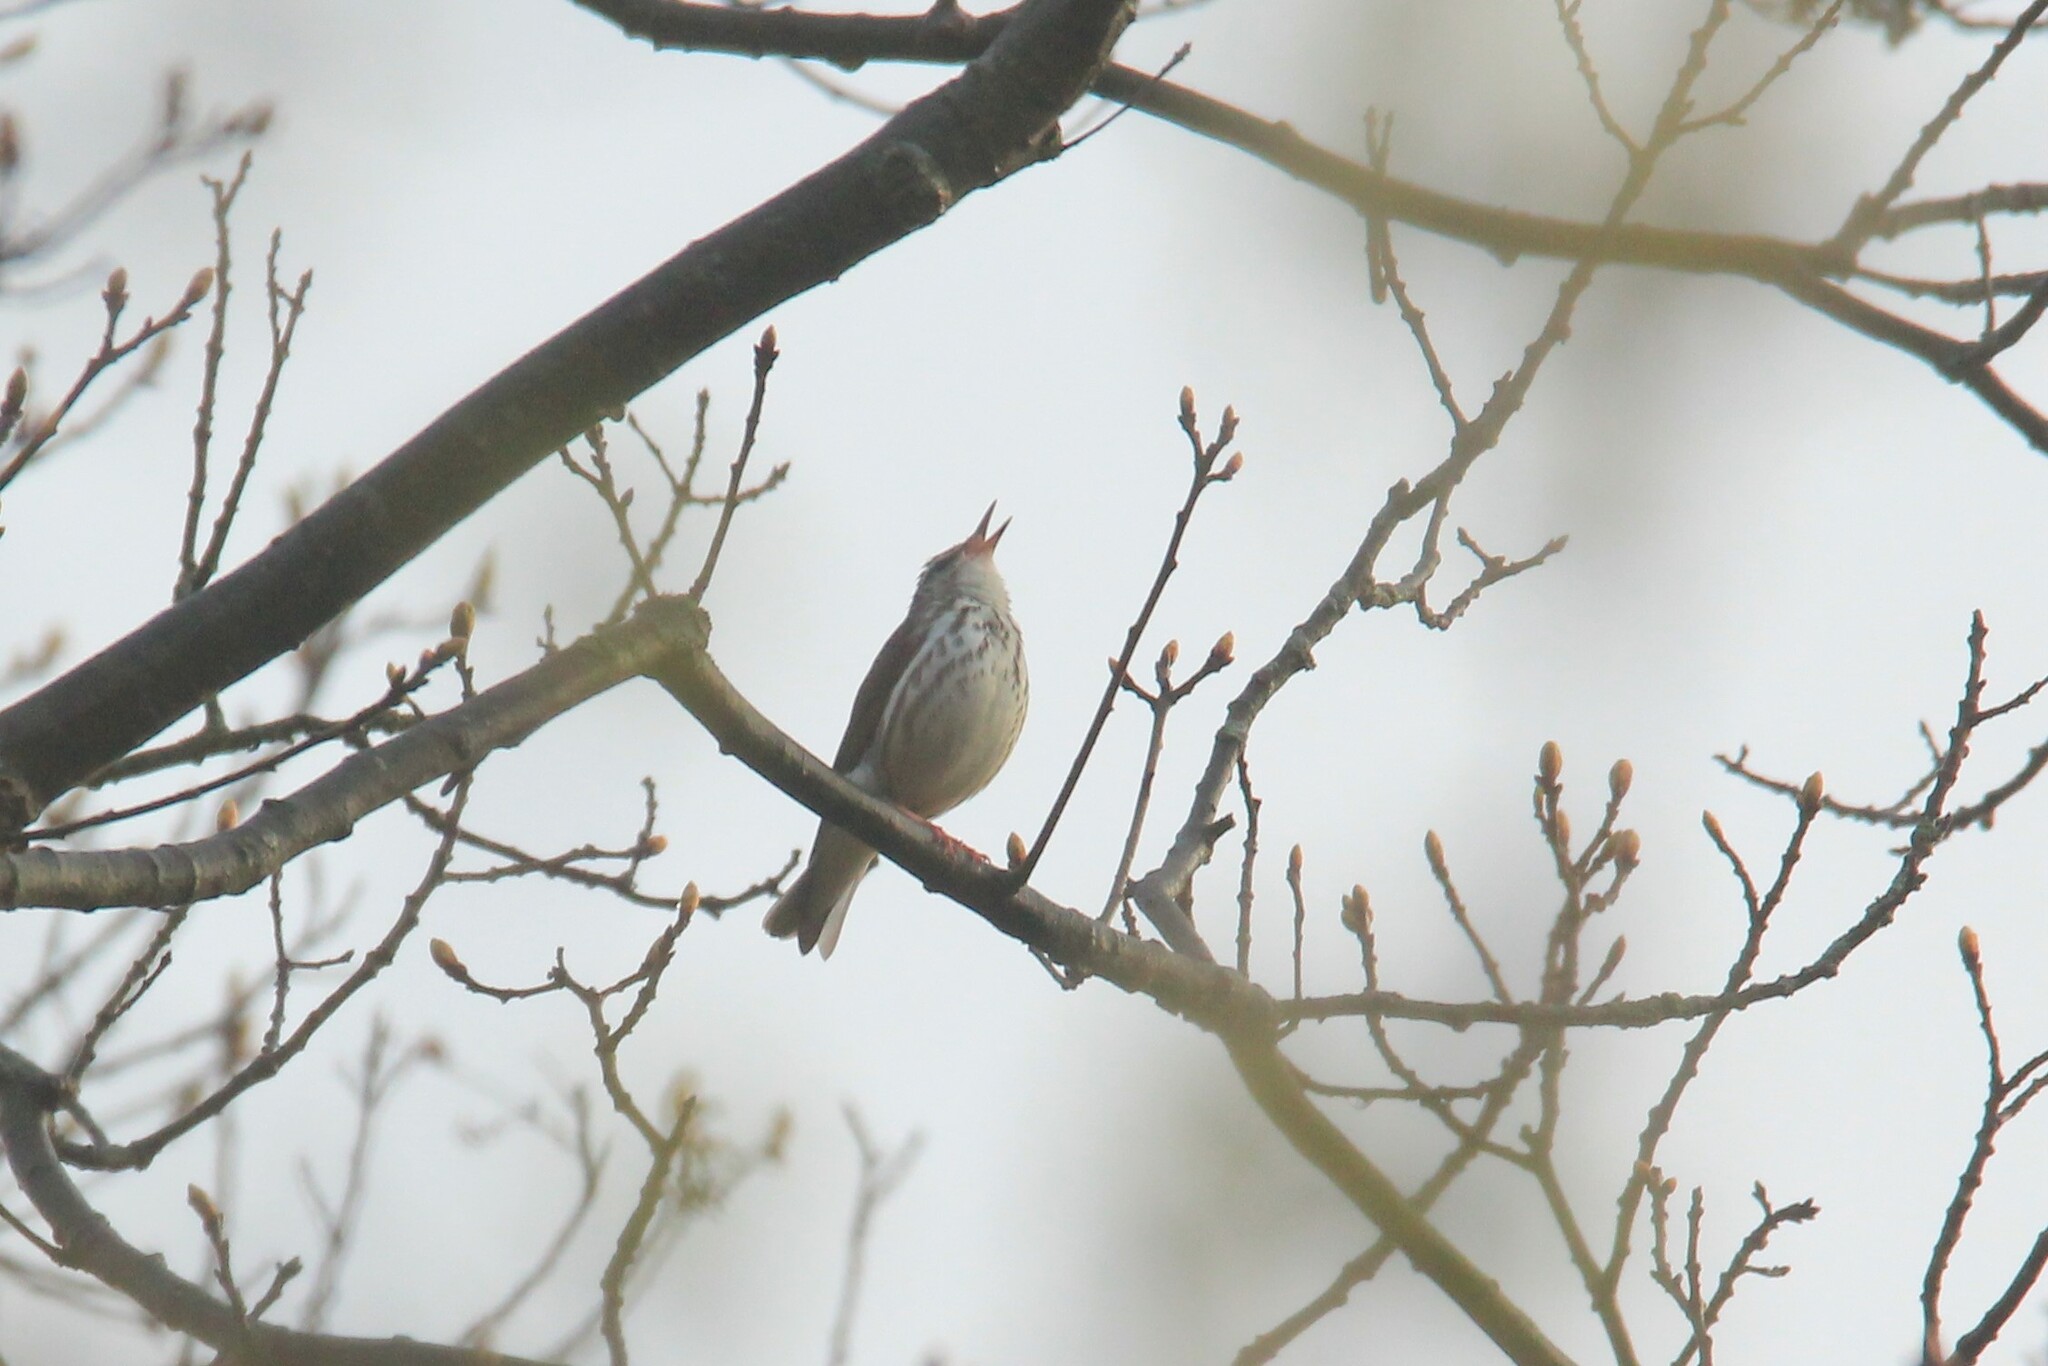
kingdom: Animalia
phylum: Chordata
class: Aves
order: Passeriformes
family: Parulidae
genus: Parkesia
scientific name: Parkesia motacilla
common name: Louisiana waterthrush
